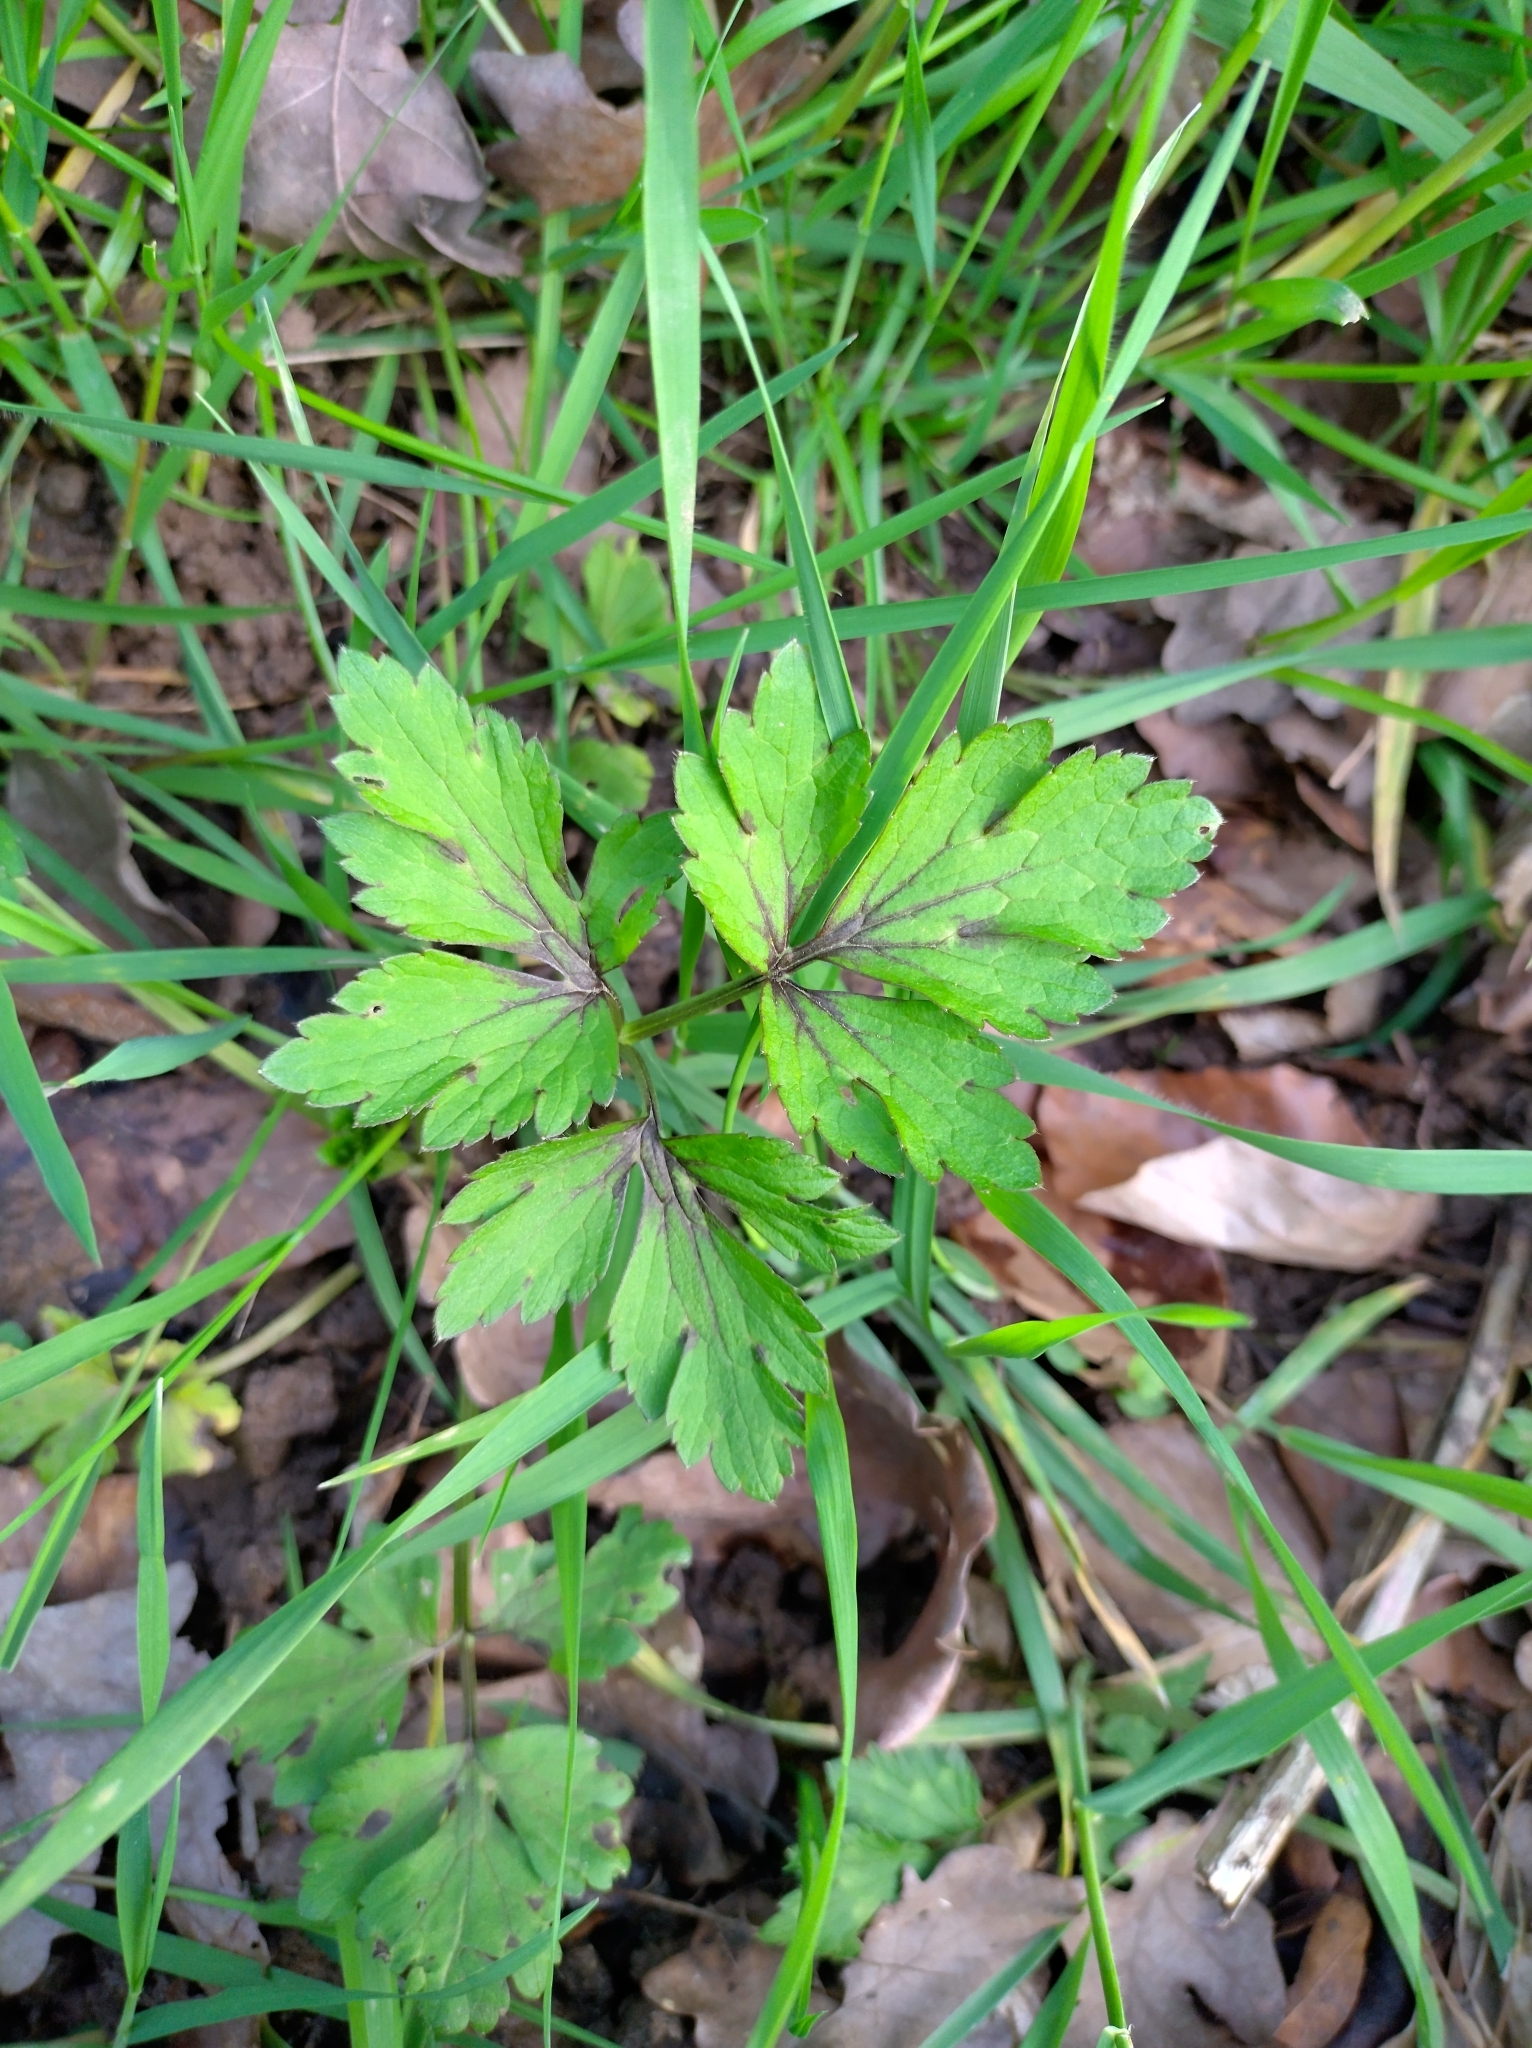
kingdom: Plantae
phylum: Tracheophyta
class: Magnoliopsida
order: Ranunculales
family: Ranunculaceae
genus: Ranunculus
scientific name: Ranunculus repens
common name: Creeping buttercup
